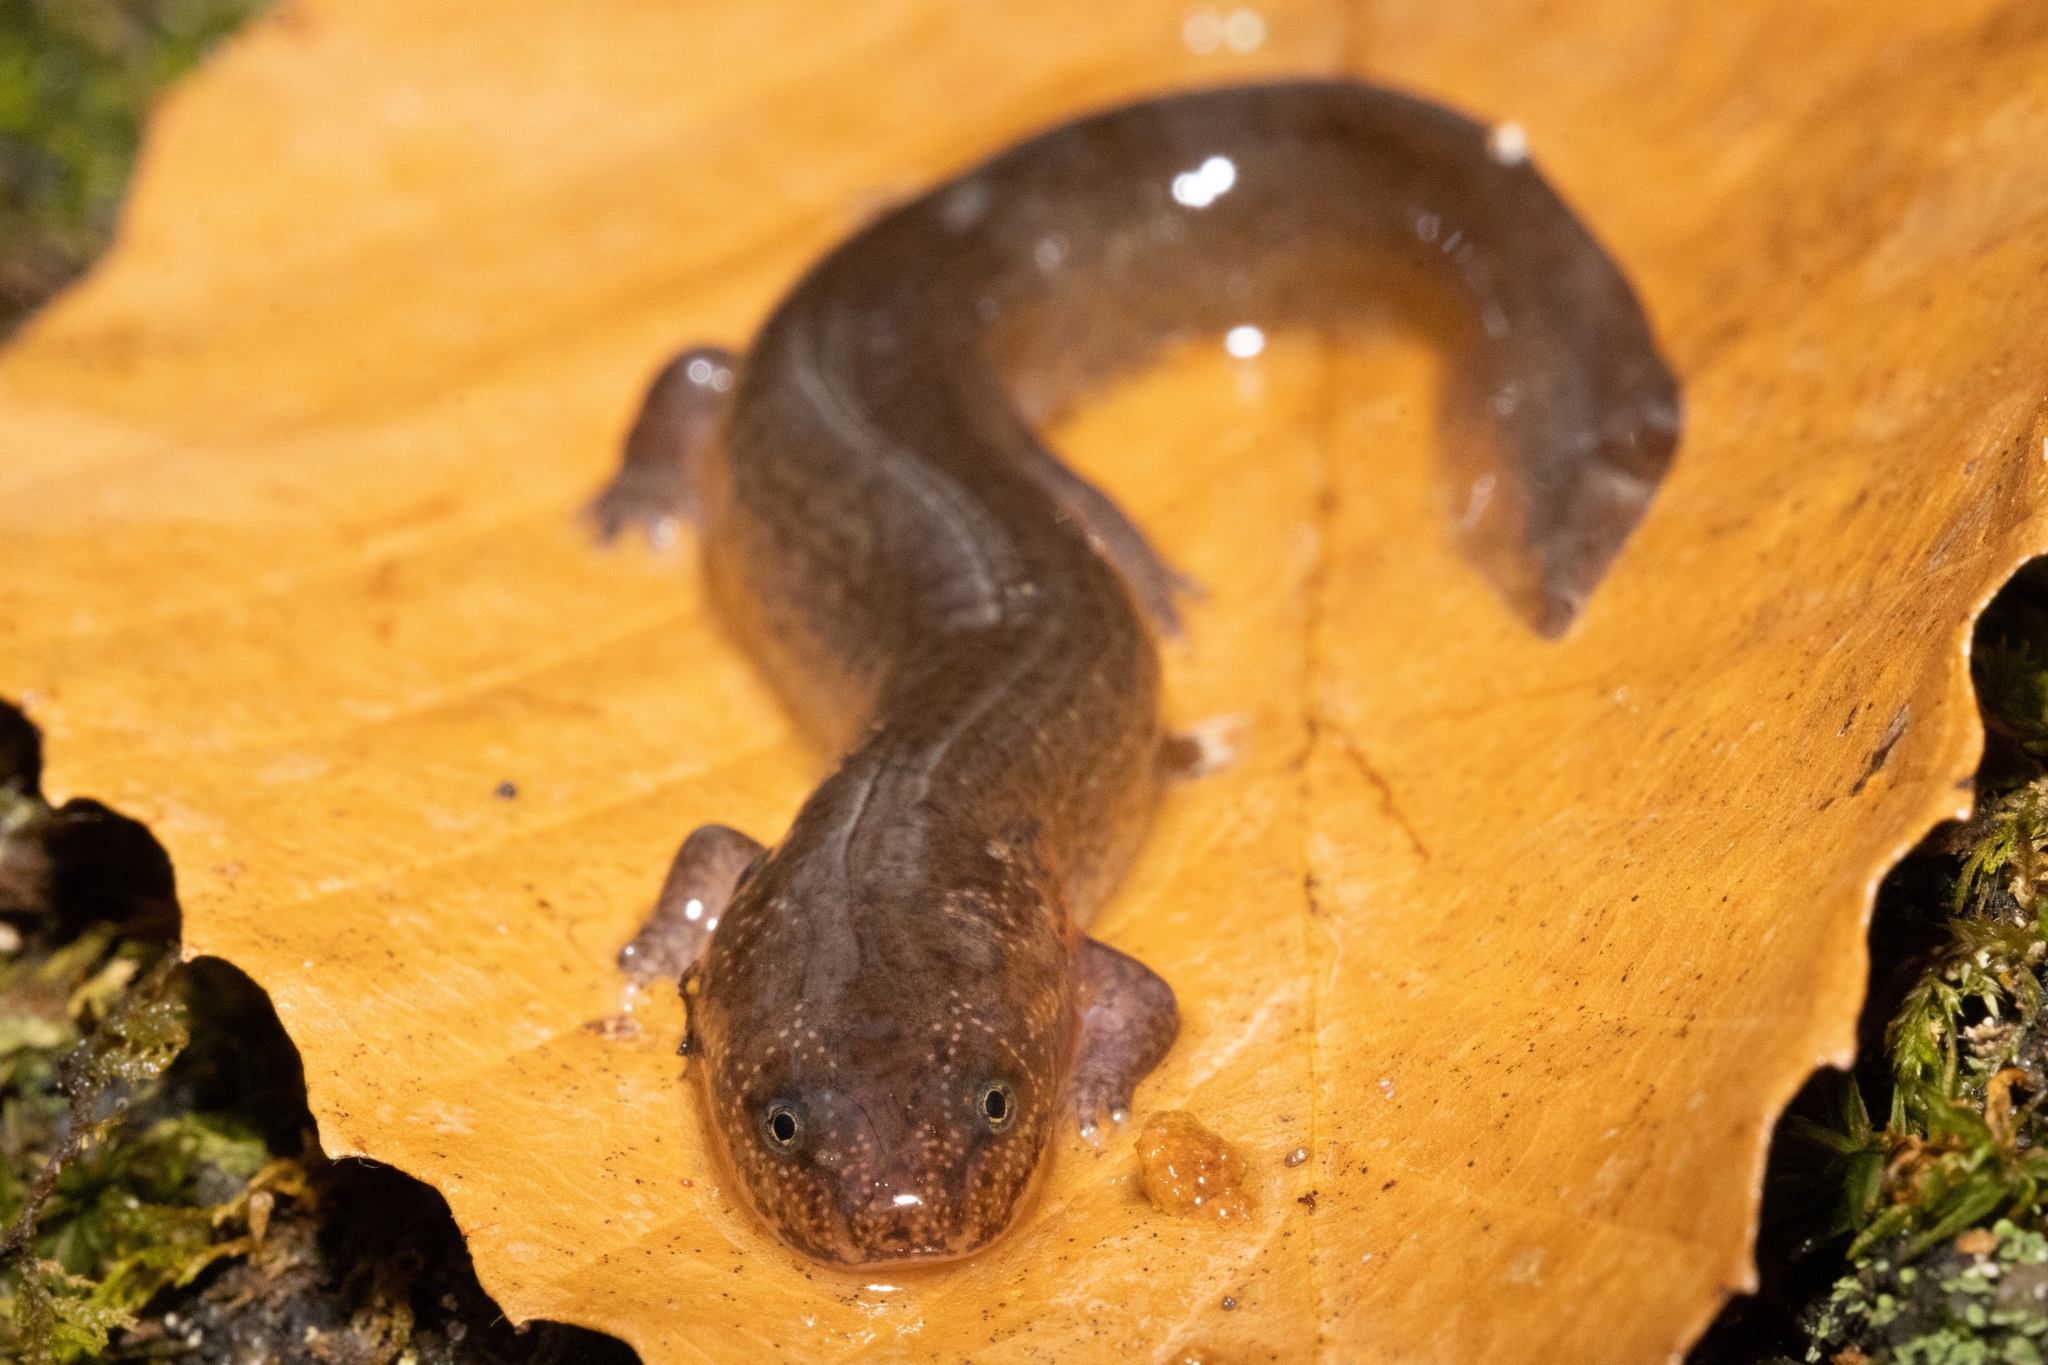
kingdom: Animalia
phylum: Chordata
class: Amphibia
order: Caudata
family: Plethodontidae
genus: Pseudotriton
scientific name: Pseudotriton ruber
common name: Red salamander
